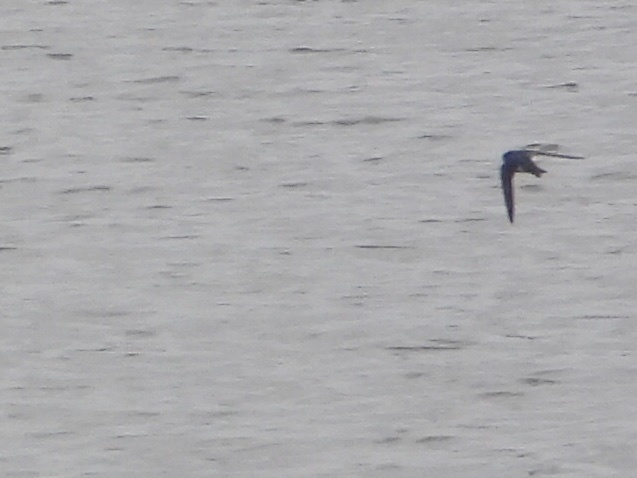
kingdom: Animalia
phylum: Chordata
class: Aves
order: Passeriformes
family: Hirundinidae
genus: Tachycineta
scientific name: Tachycineta bicolor
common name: Tree swallow
